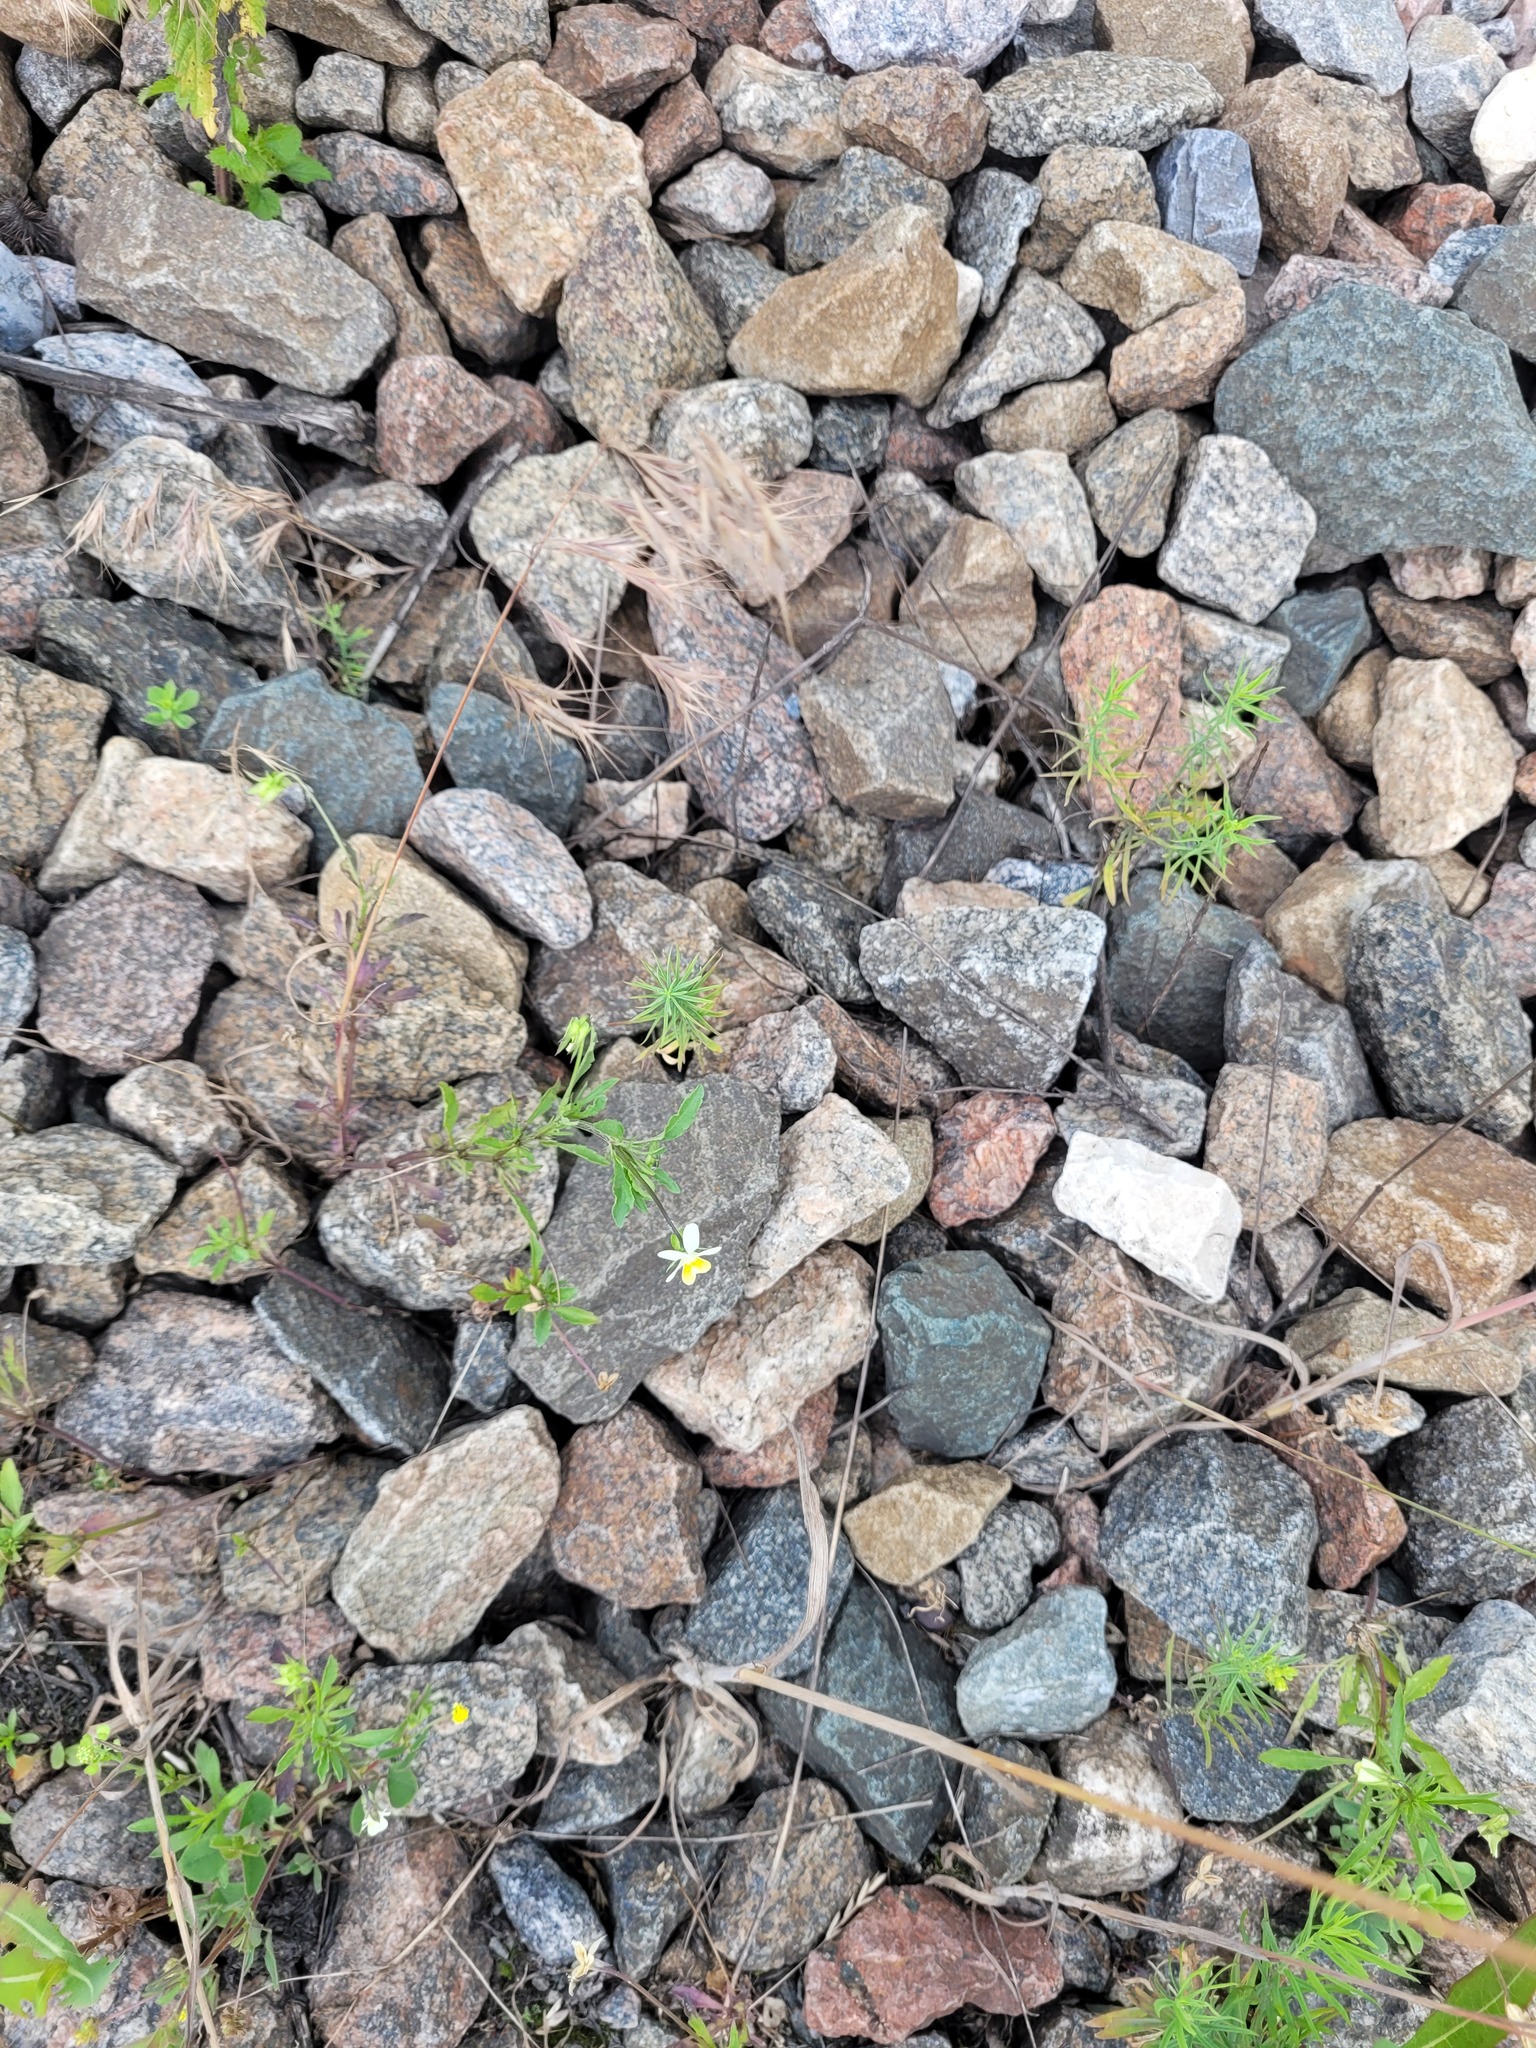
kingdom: Plantae
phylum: Tracheophyta
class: Magnoliopsida
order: Malpighiales
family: Violaceae
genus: Viola
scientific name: Viola arvensis
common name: Field pansy
